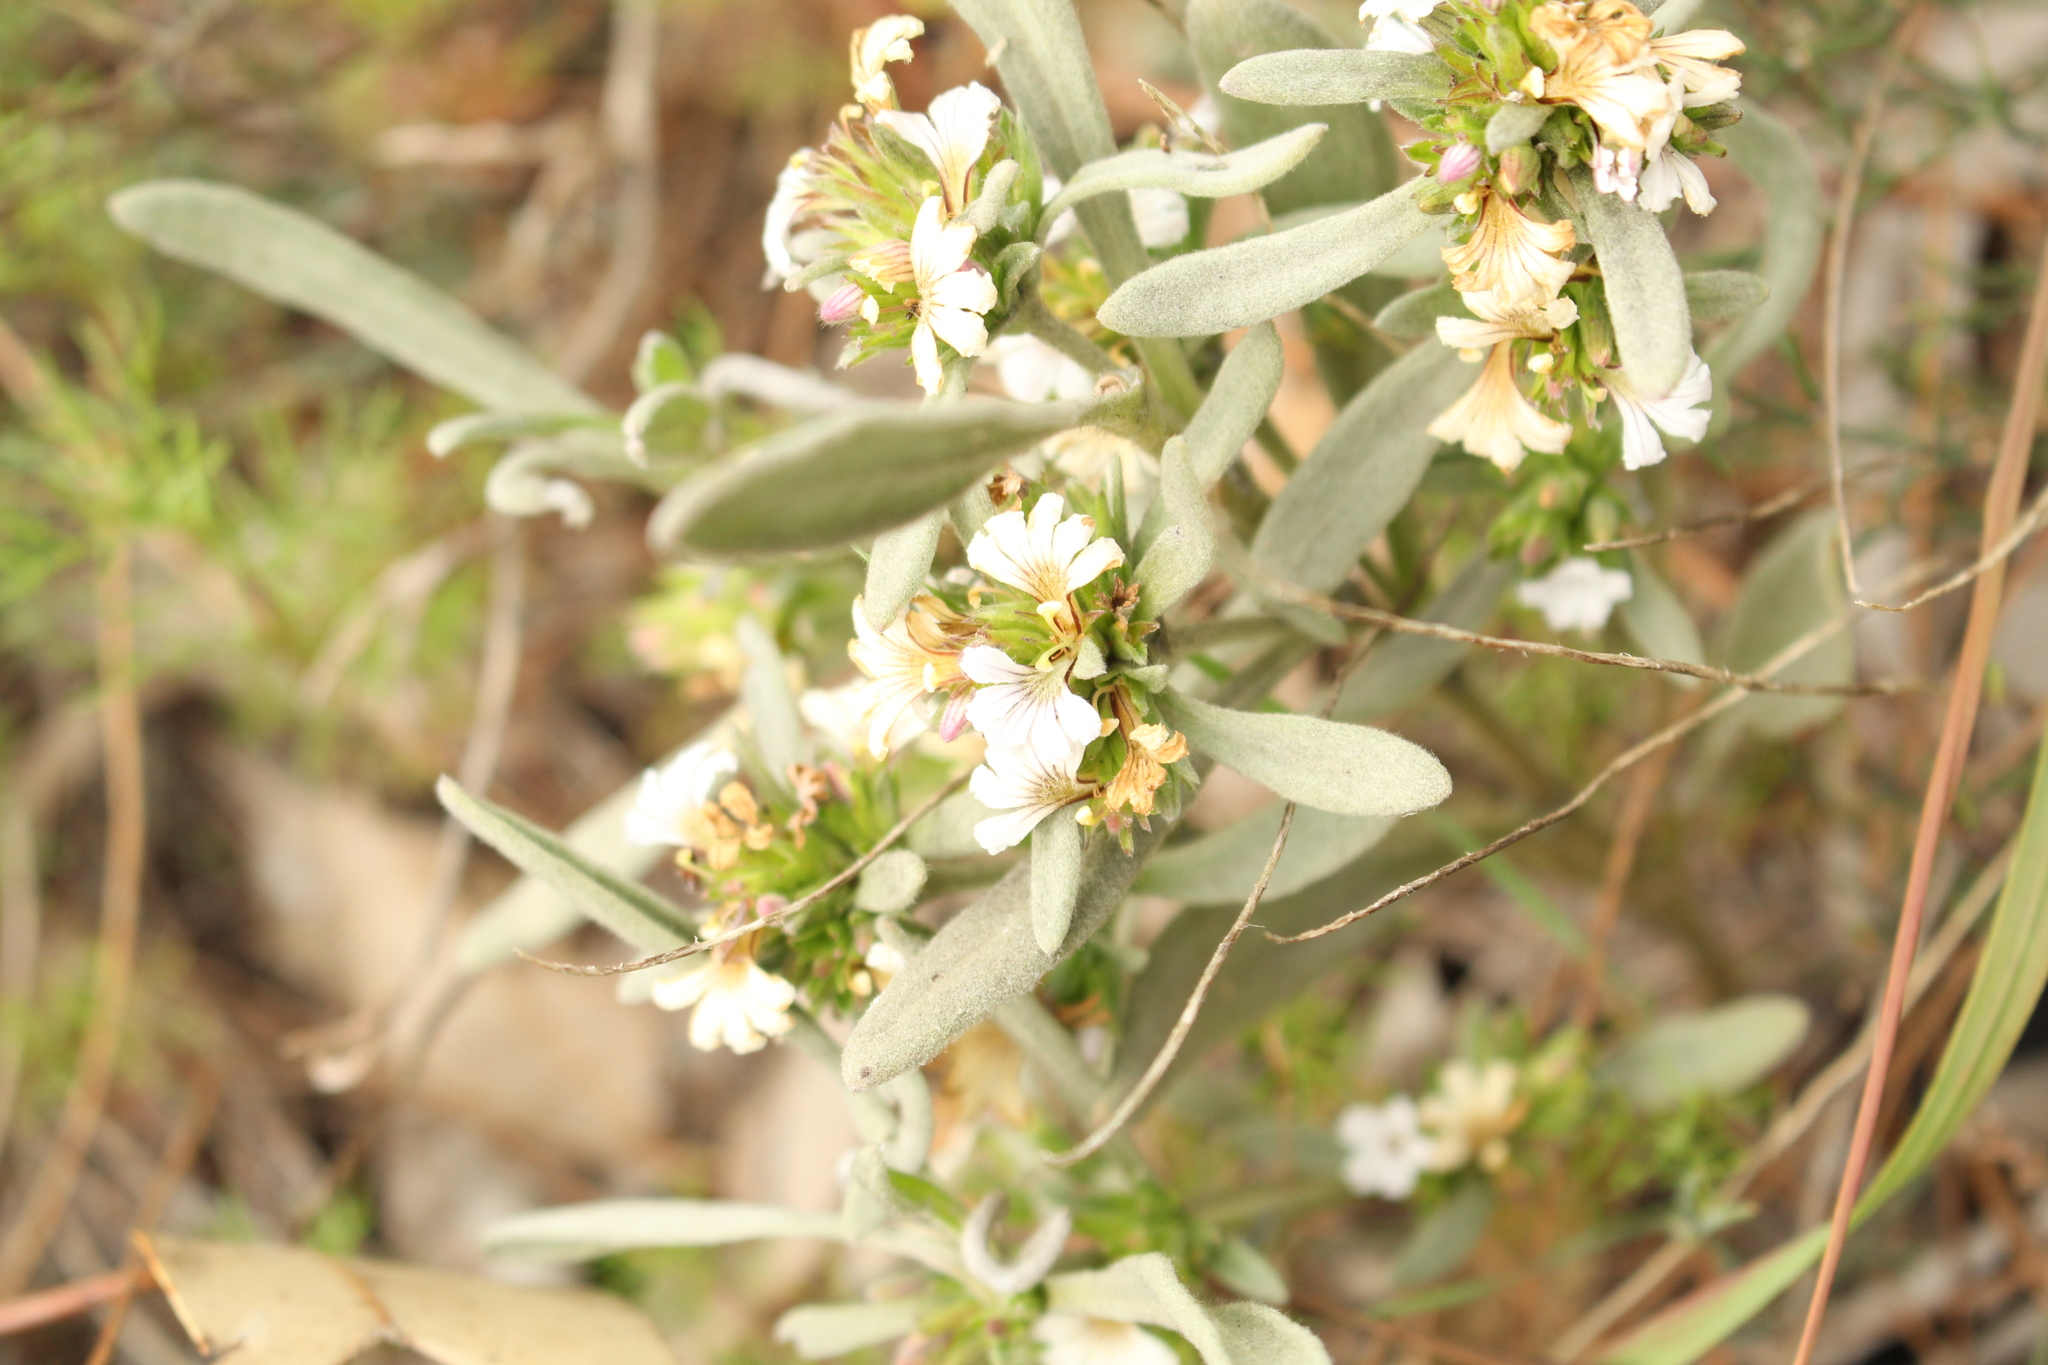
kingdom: Plantae
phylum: Tracheophyta
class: Magnoliopsida
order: Asterales
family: Goodeniaceae
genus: Scaevola
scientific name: Scaevola canescens
